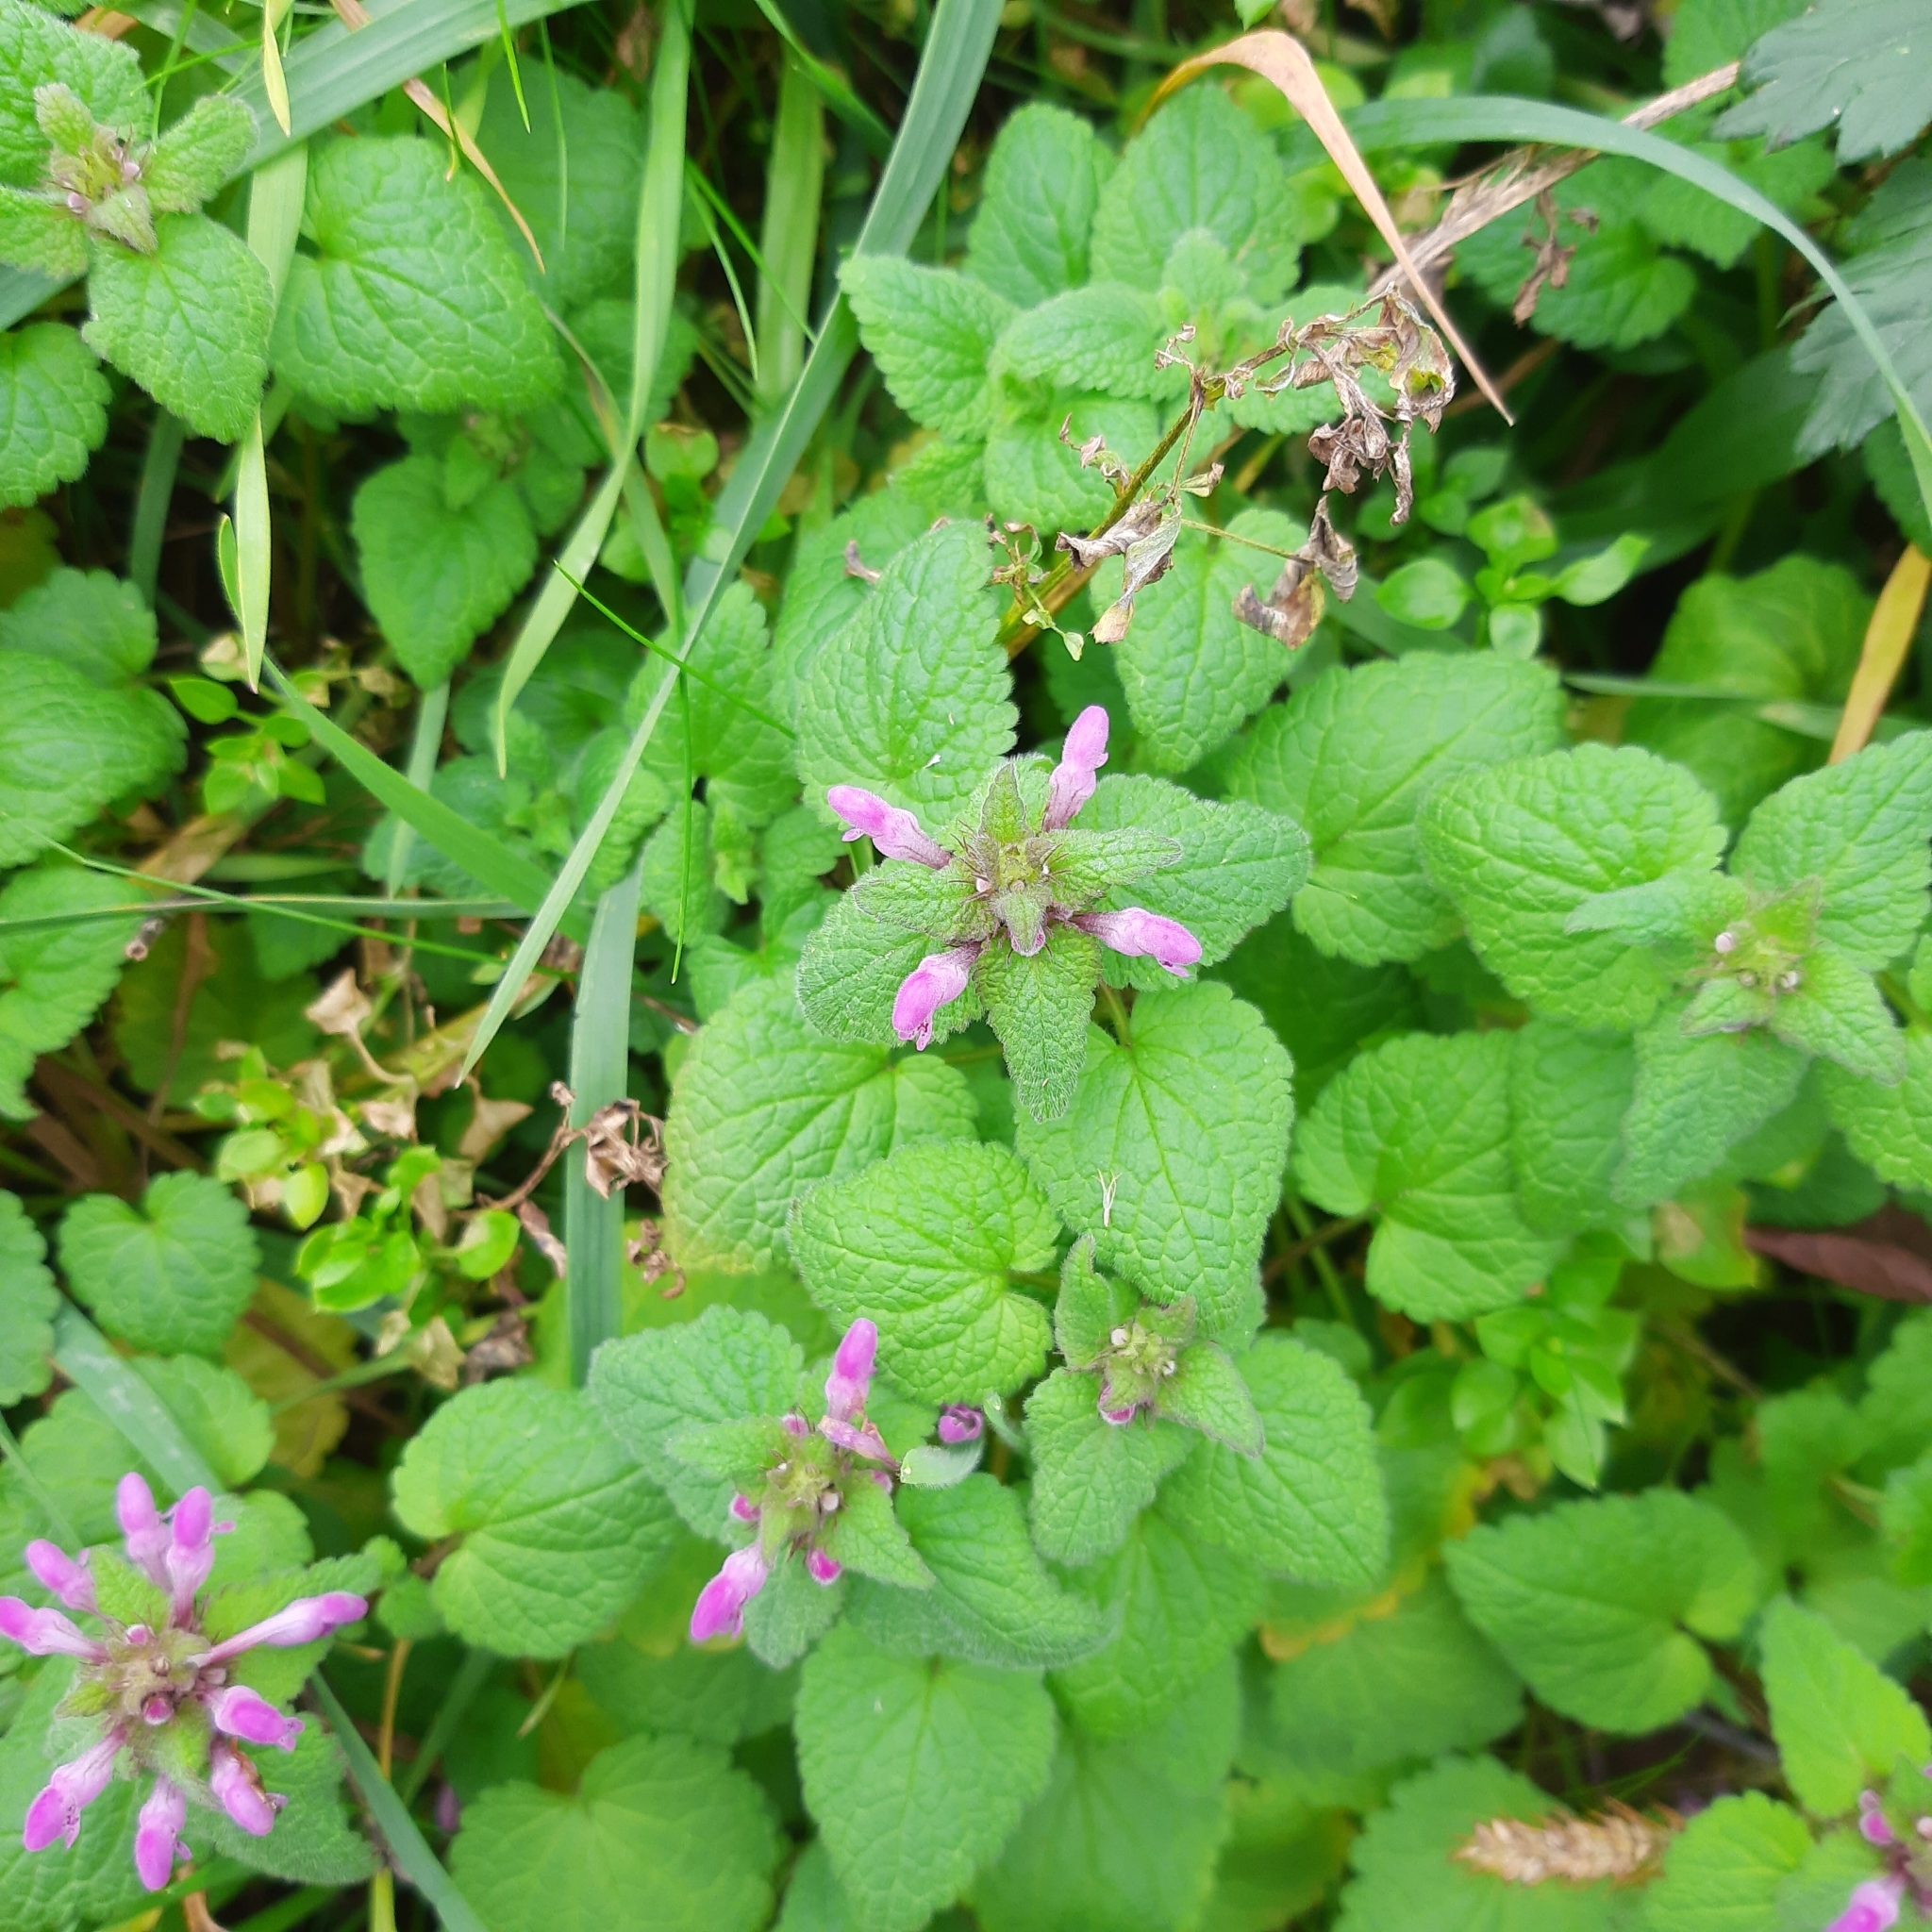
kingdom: Plantae
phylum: Tracheophyta
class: Magnoliopsida
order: Lamiales
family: Lamiaceae
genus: Lamium
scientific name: Lamium purpureum
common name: Red dead-nettle
